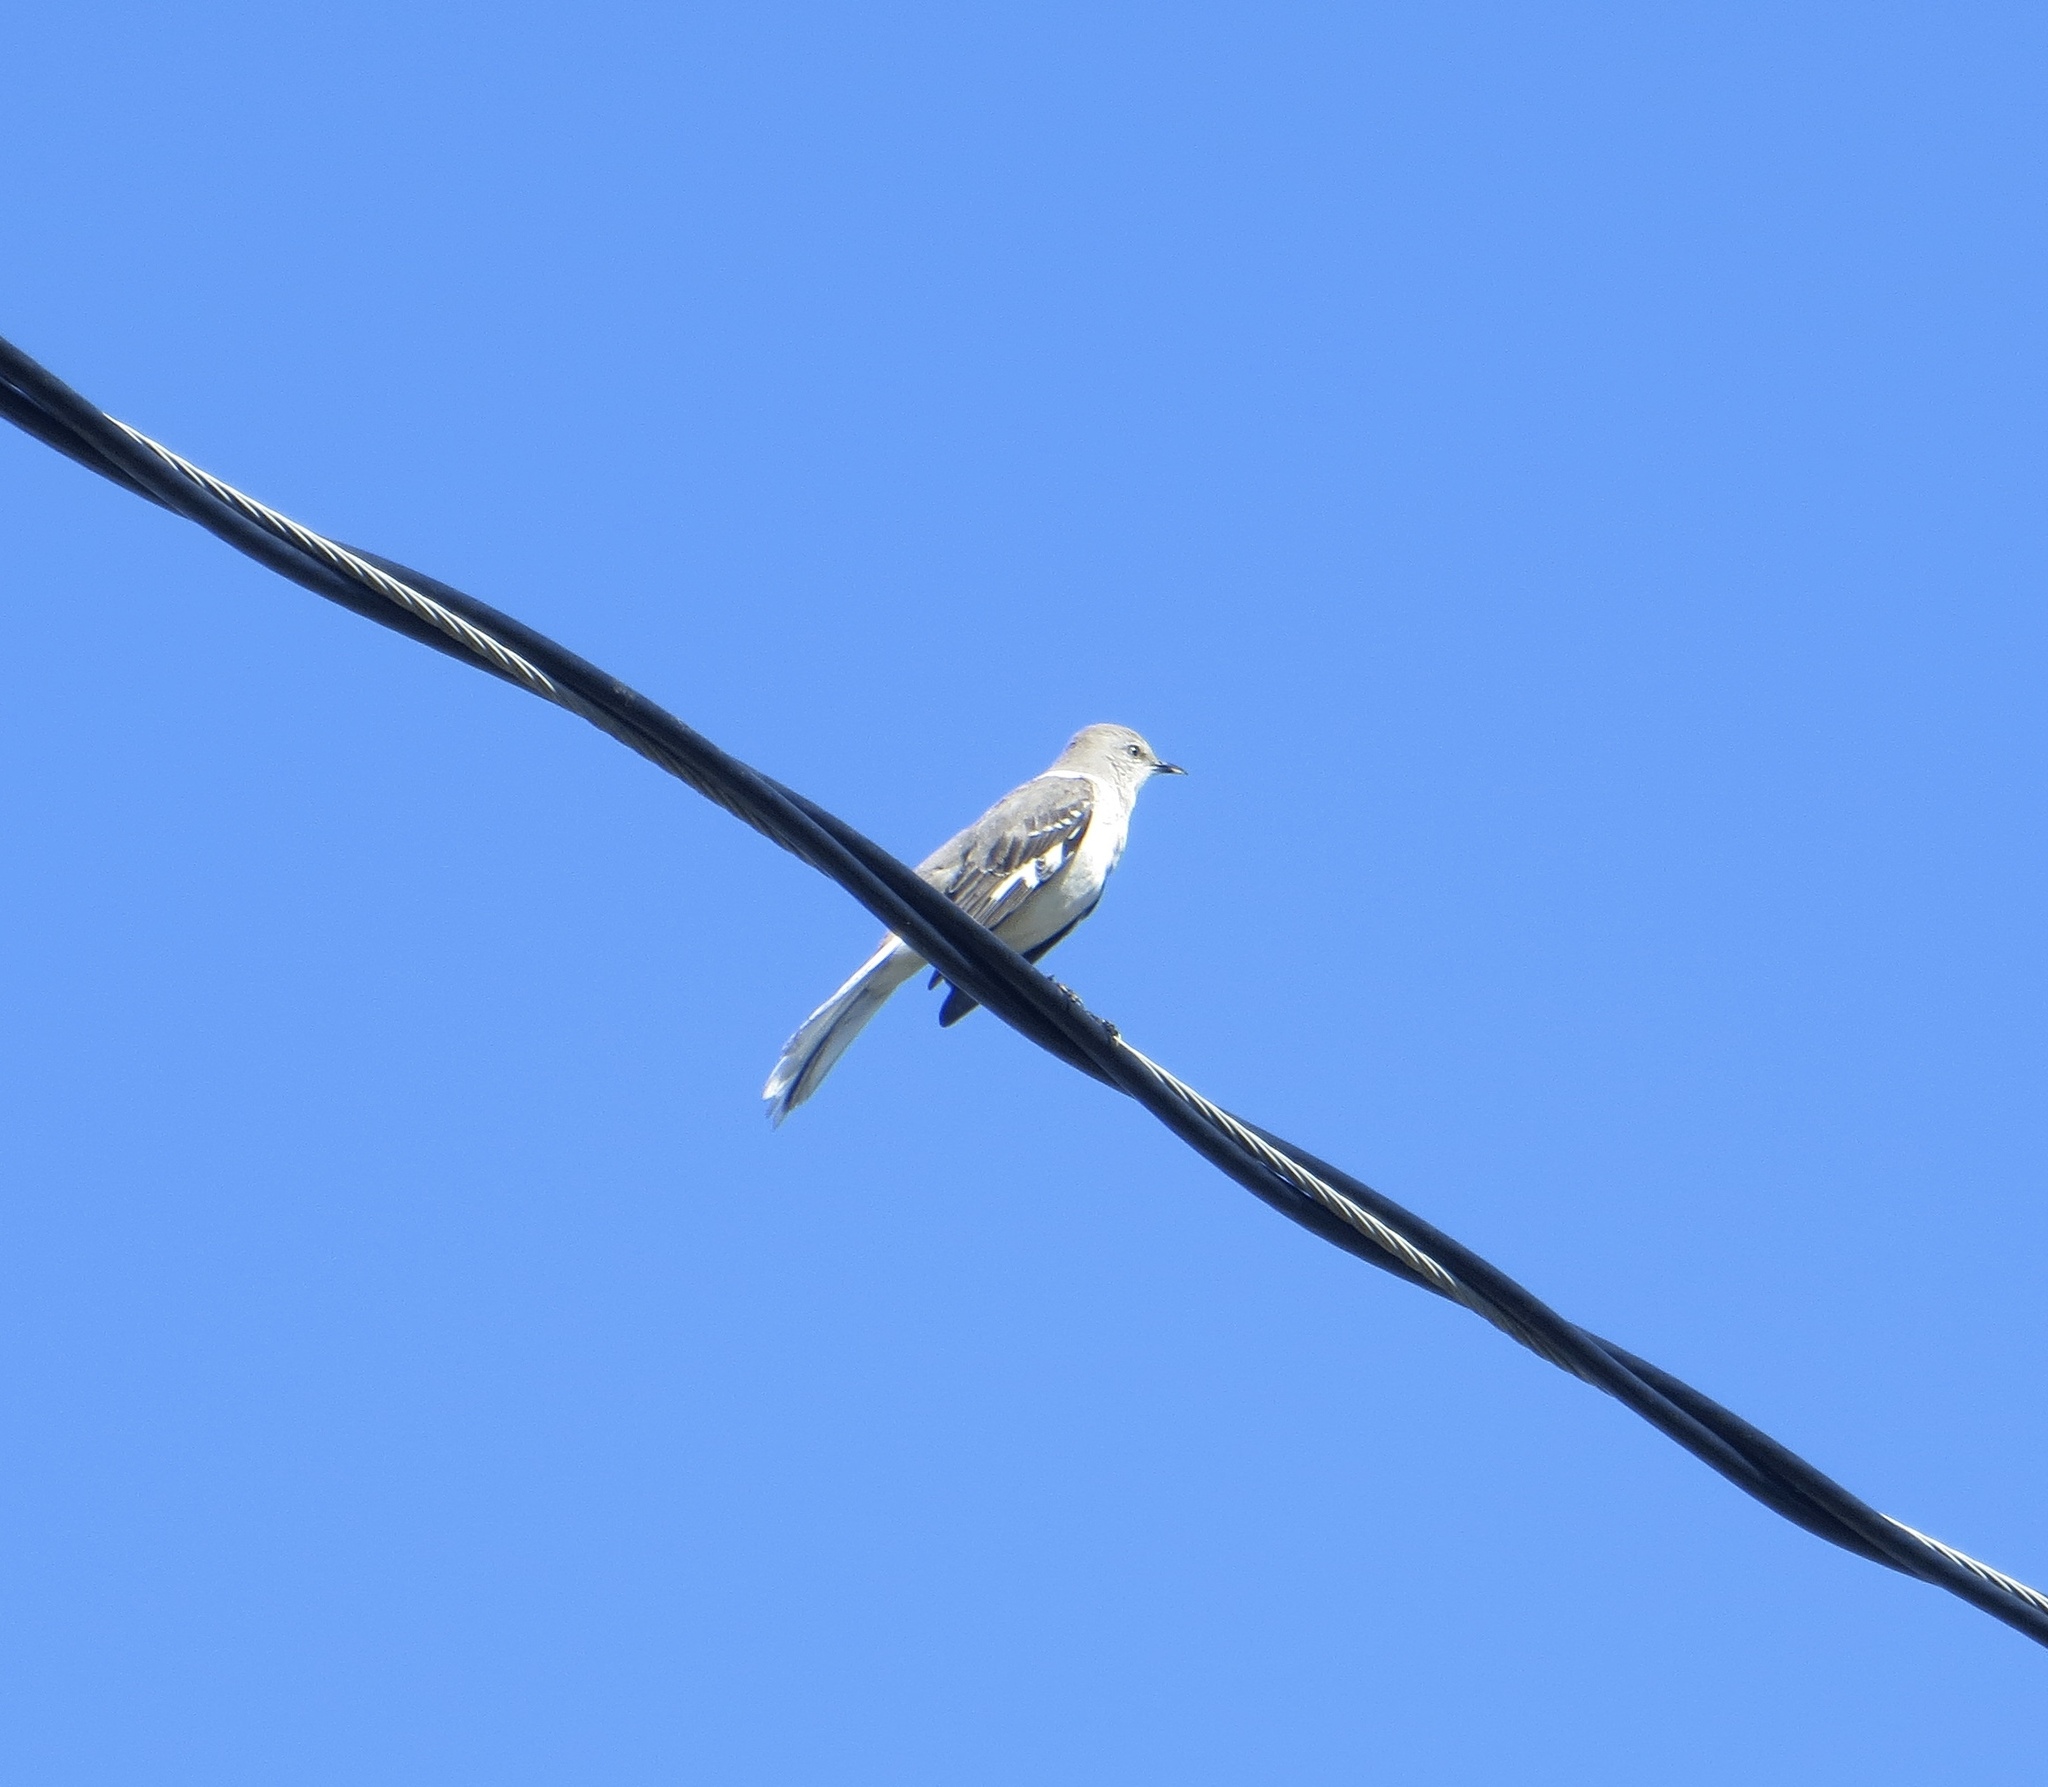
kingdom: Animalia
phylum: Chordata
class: Aves
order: Passeriformes
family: Mimidae
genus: Mimus
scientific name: Mimus polyglottos
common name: Northern mockingbird
